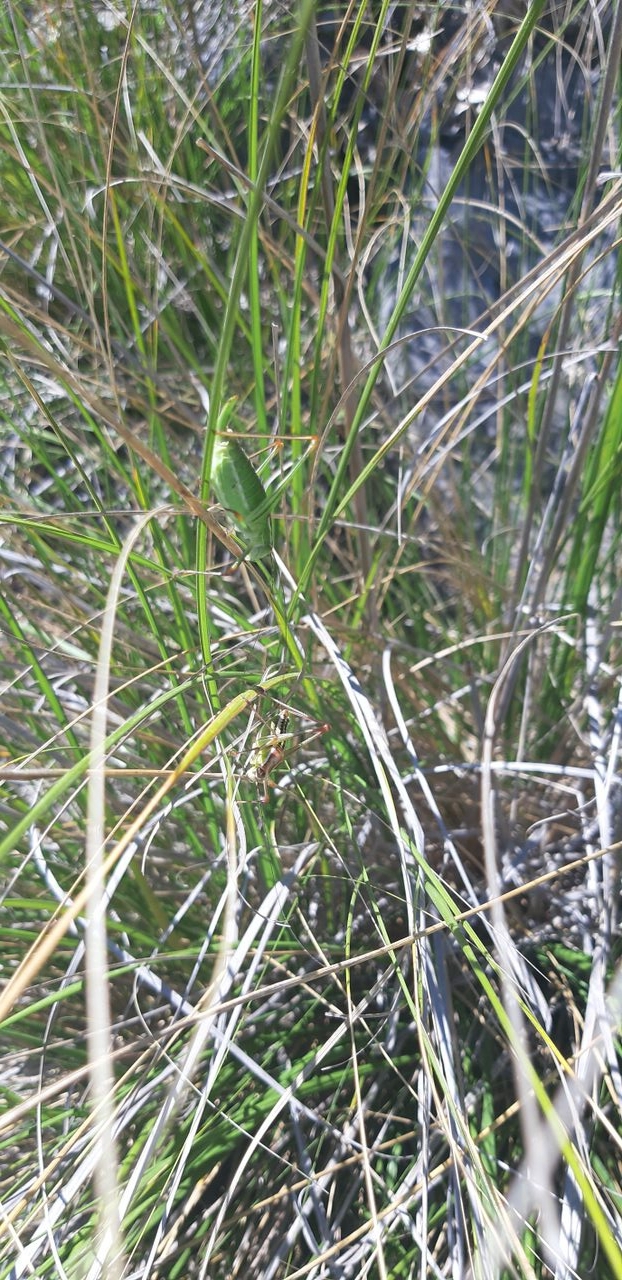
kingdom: Animalia
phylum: Arthropoda
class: Insecta
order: Orthoptera
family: Tettigoniidae
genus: Poecilimon
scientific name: Poecilimon superbus
